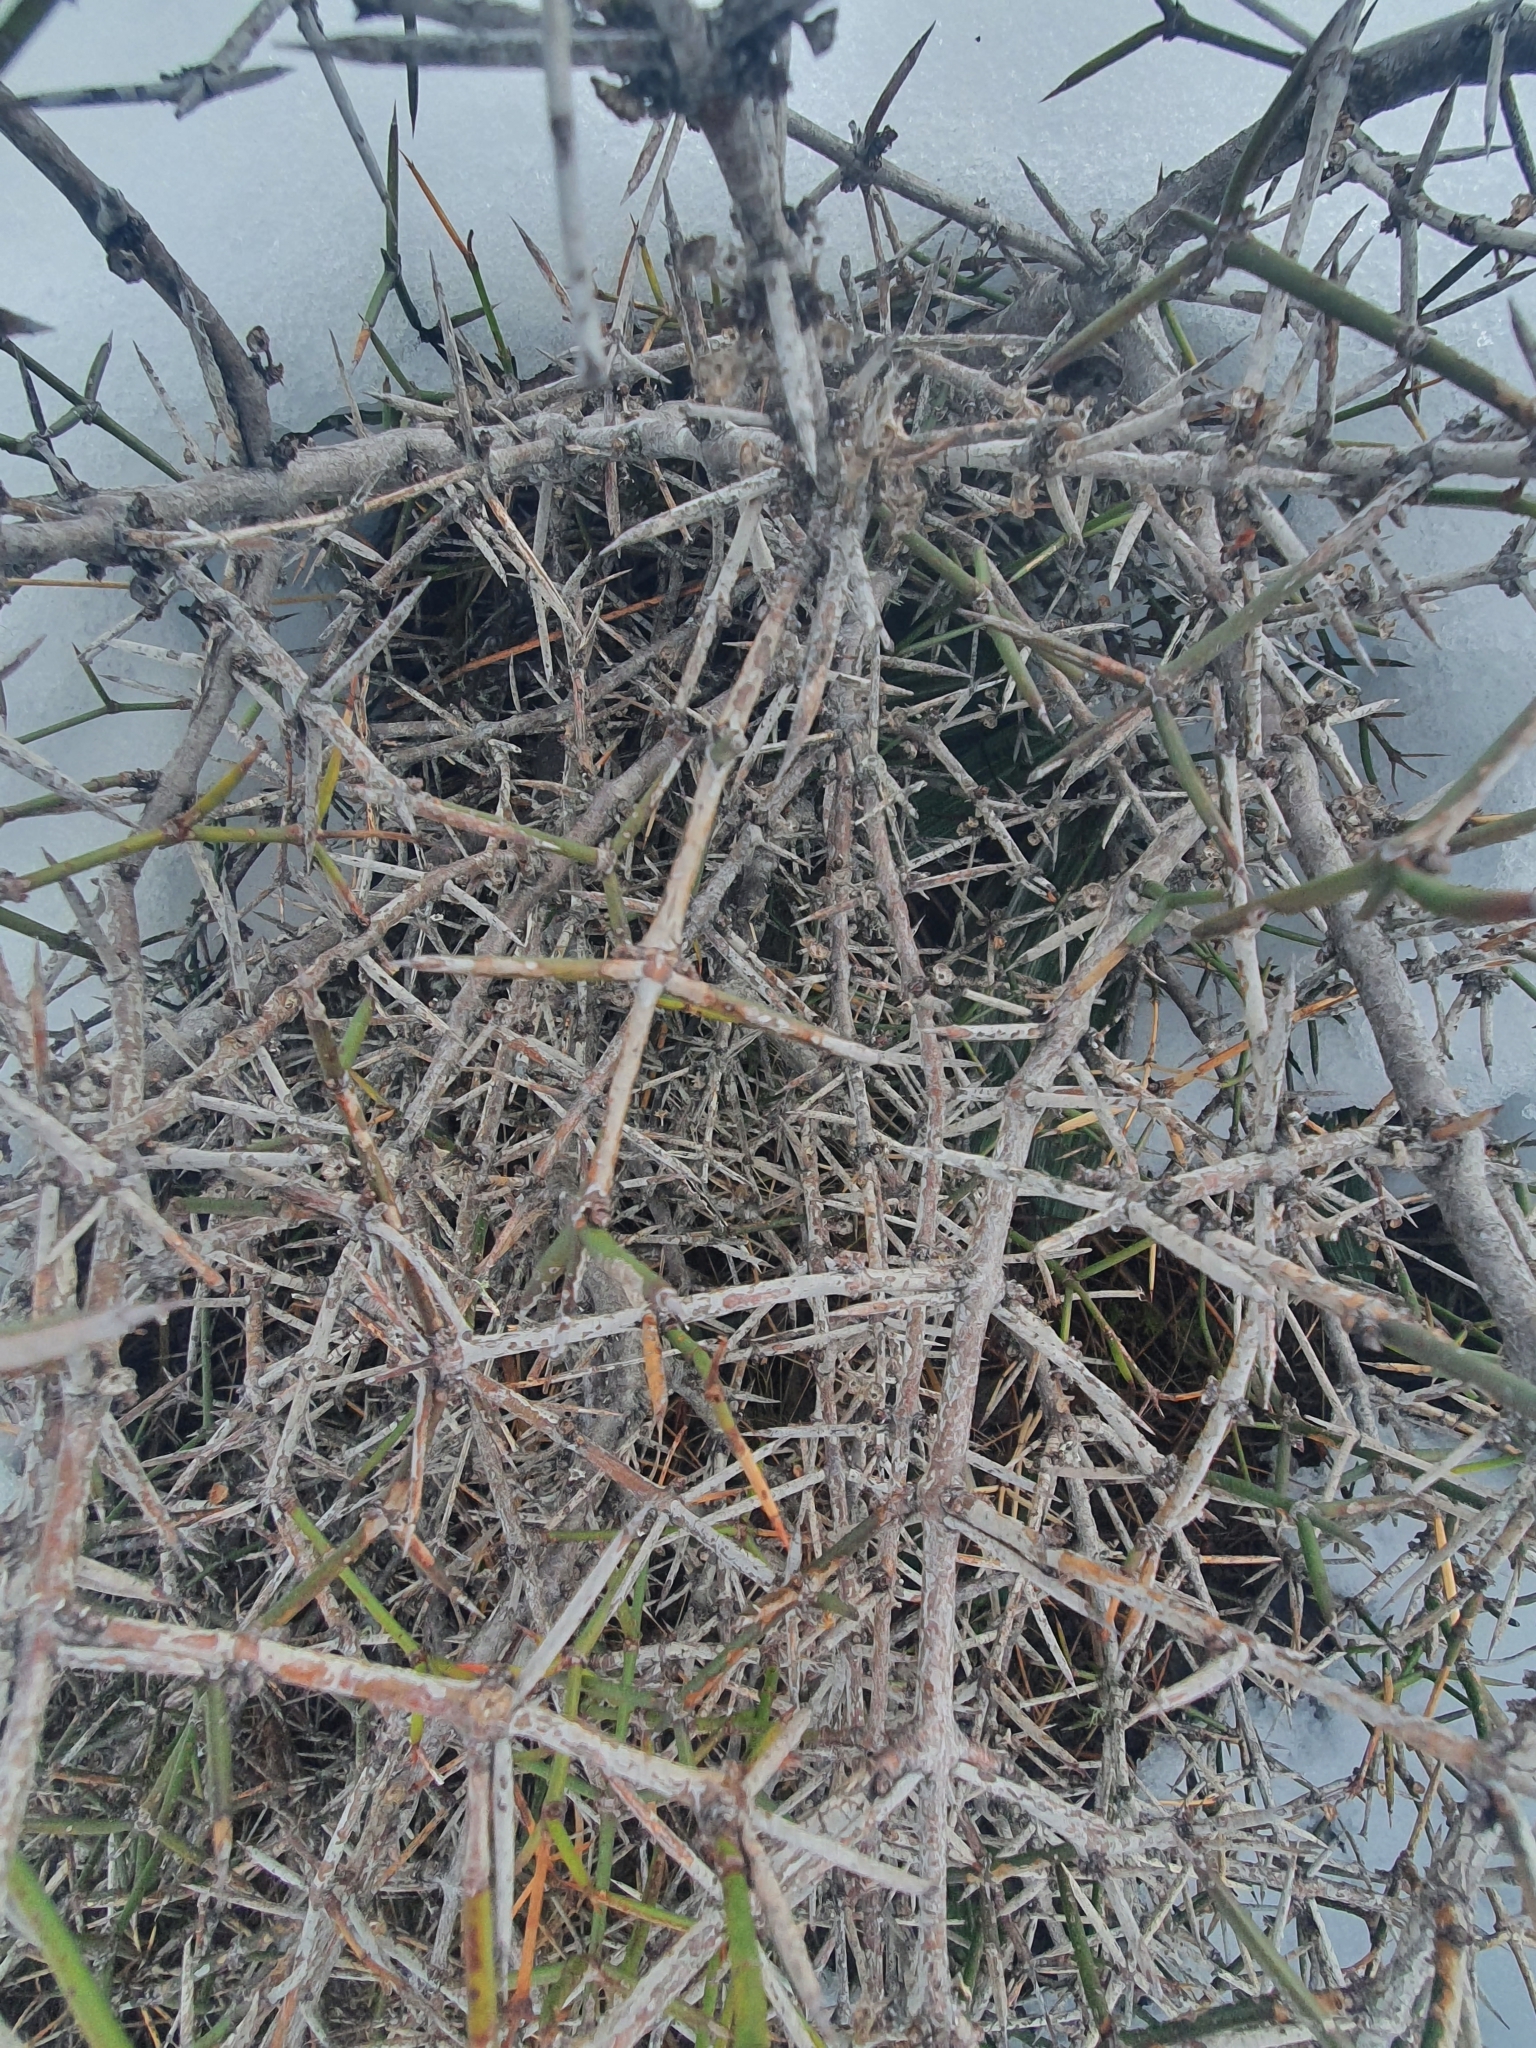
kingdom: Plantae
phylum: Tracheophyta
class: Magnoliopsida
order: Rosales
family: Rhamnaceae
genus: Discaria
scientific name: Discaria toumatou
